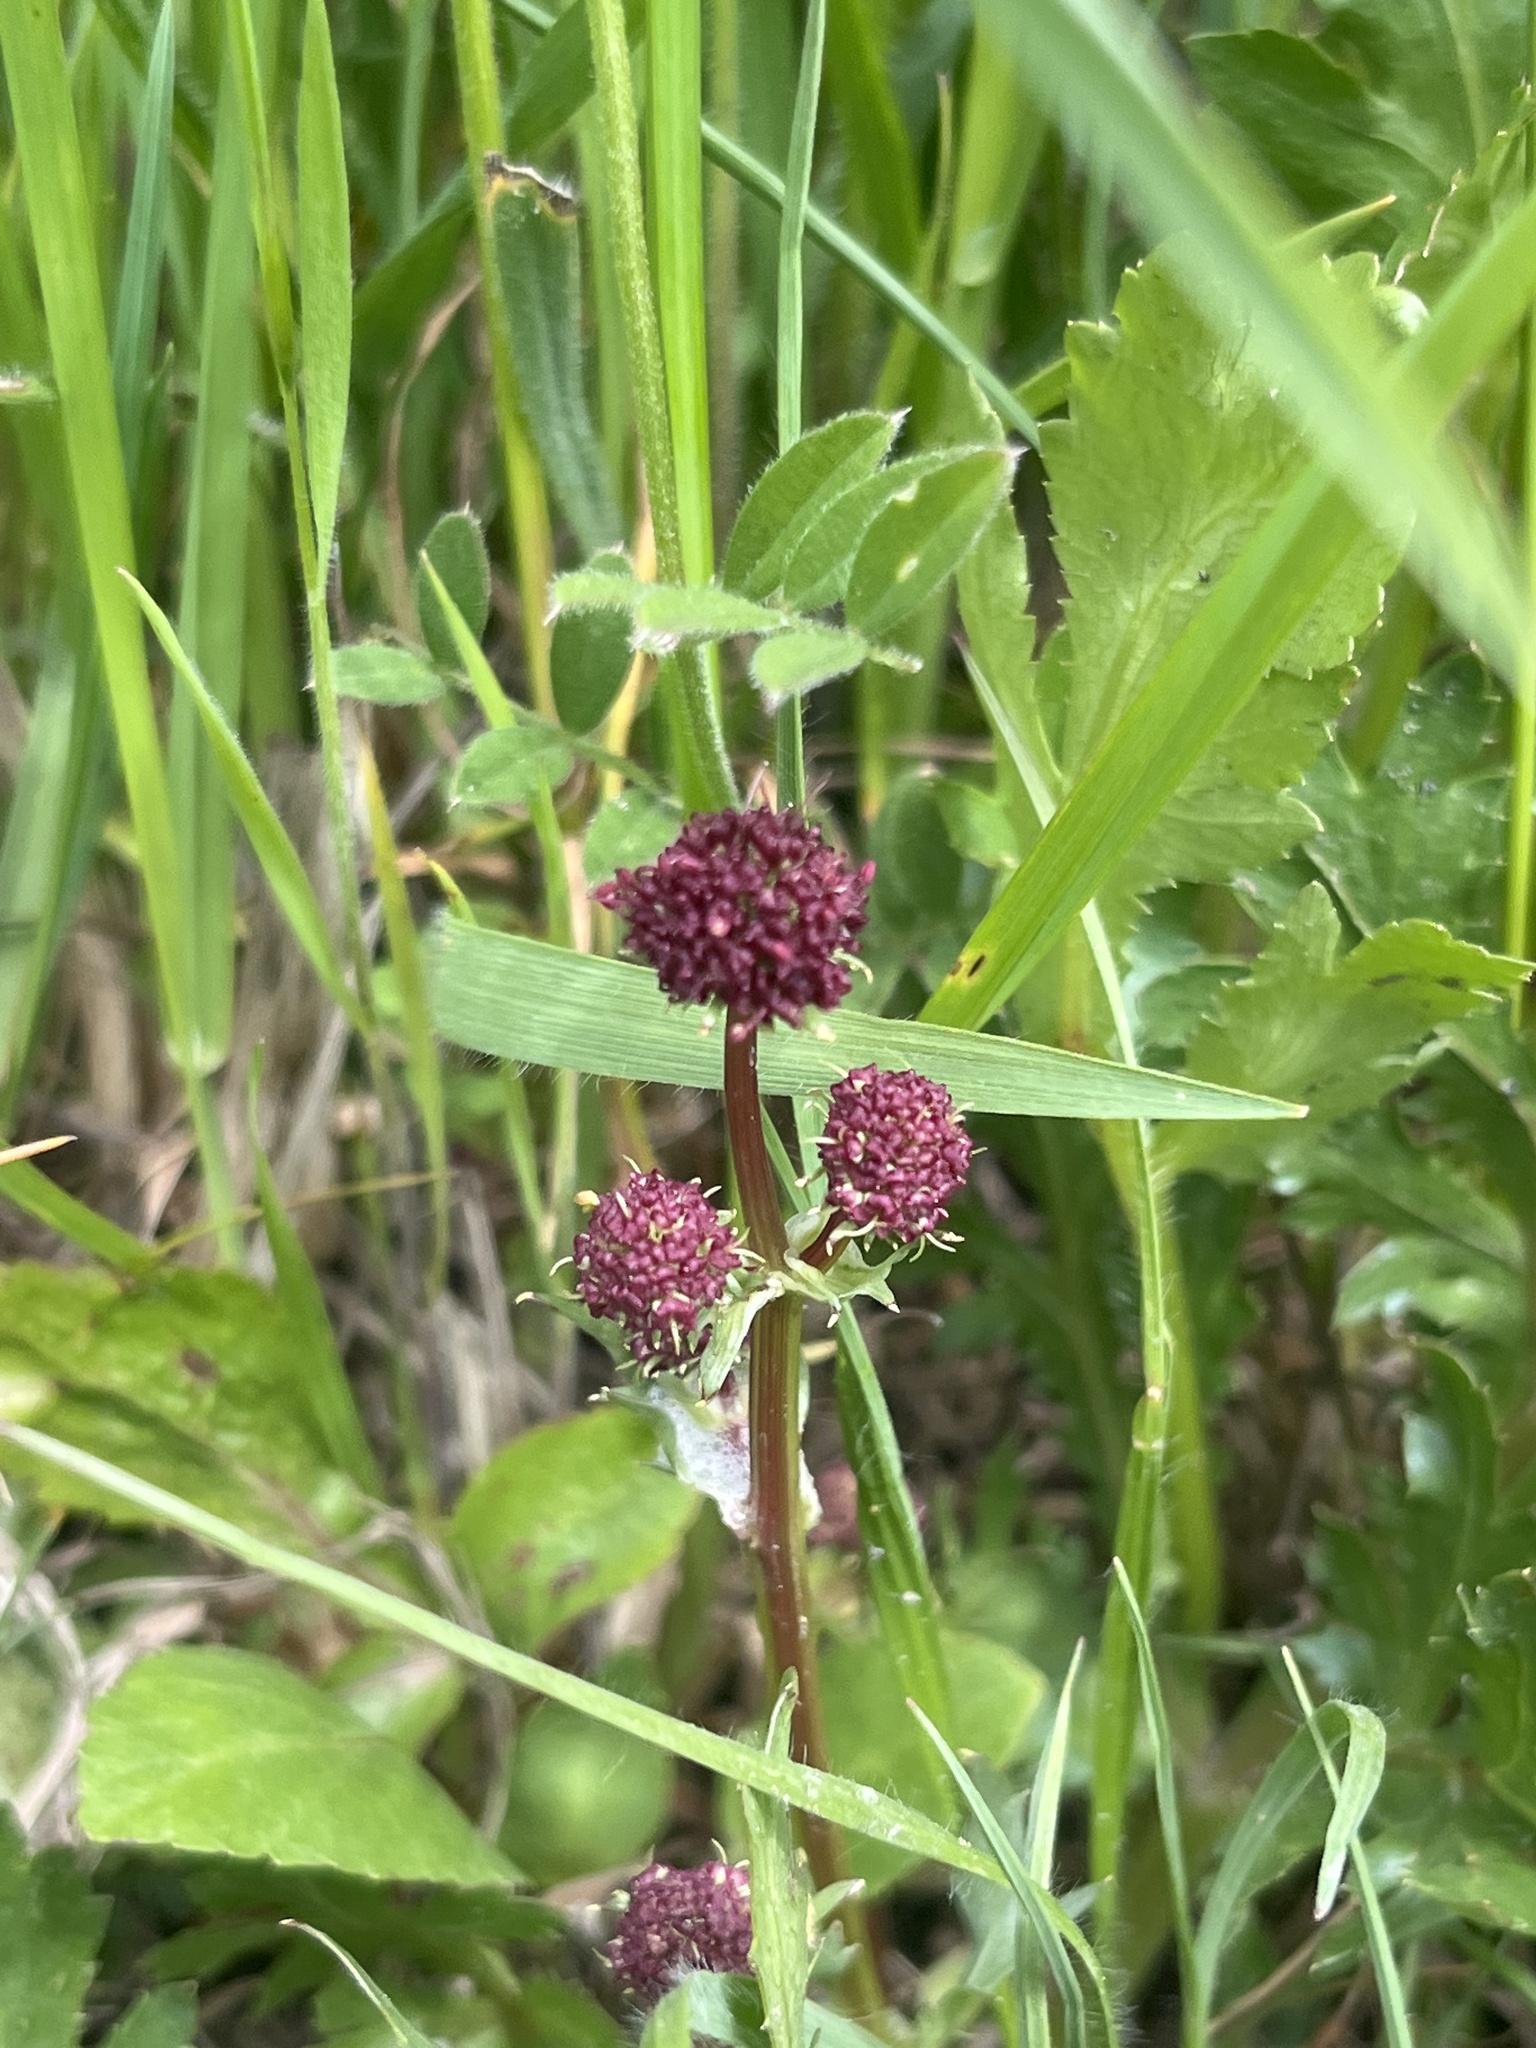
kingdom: Plantae
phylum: Tracheophyta
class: Magnoliopsida
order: Apiales
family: Apiaceae
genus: Sanicula
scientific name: Sanicula bipinnatifida
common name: Shoe-buttons
